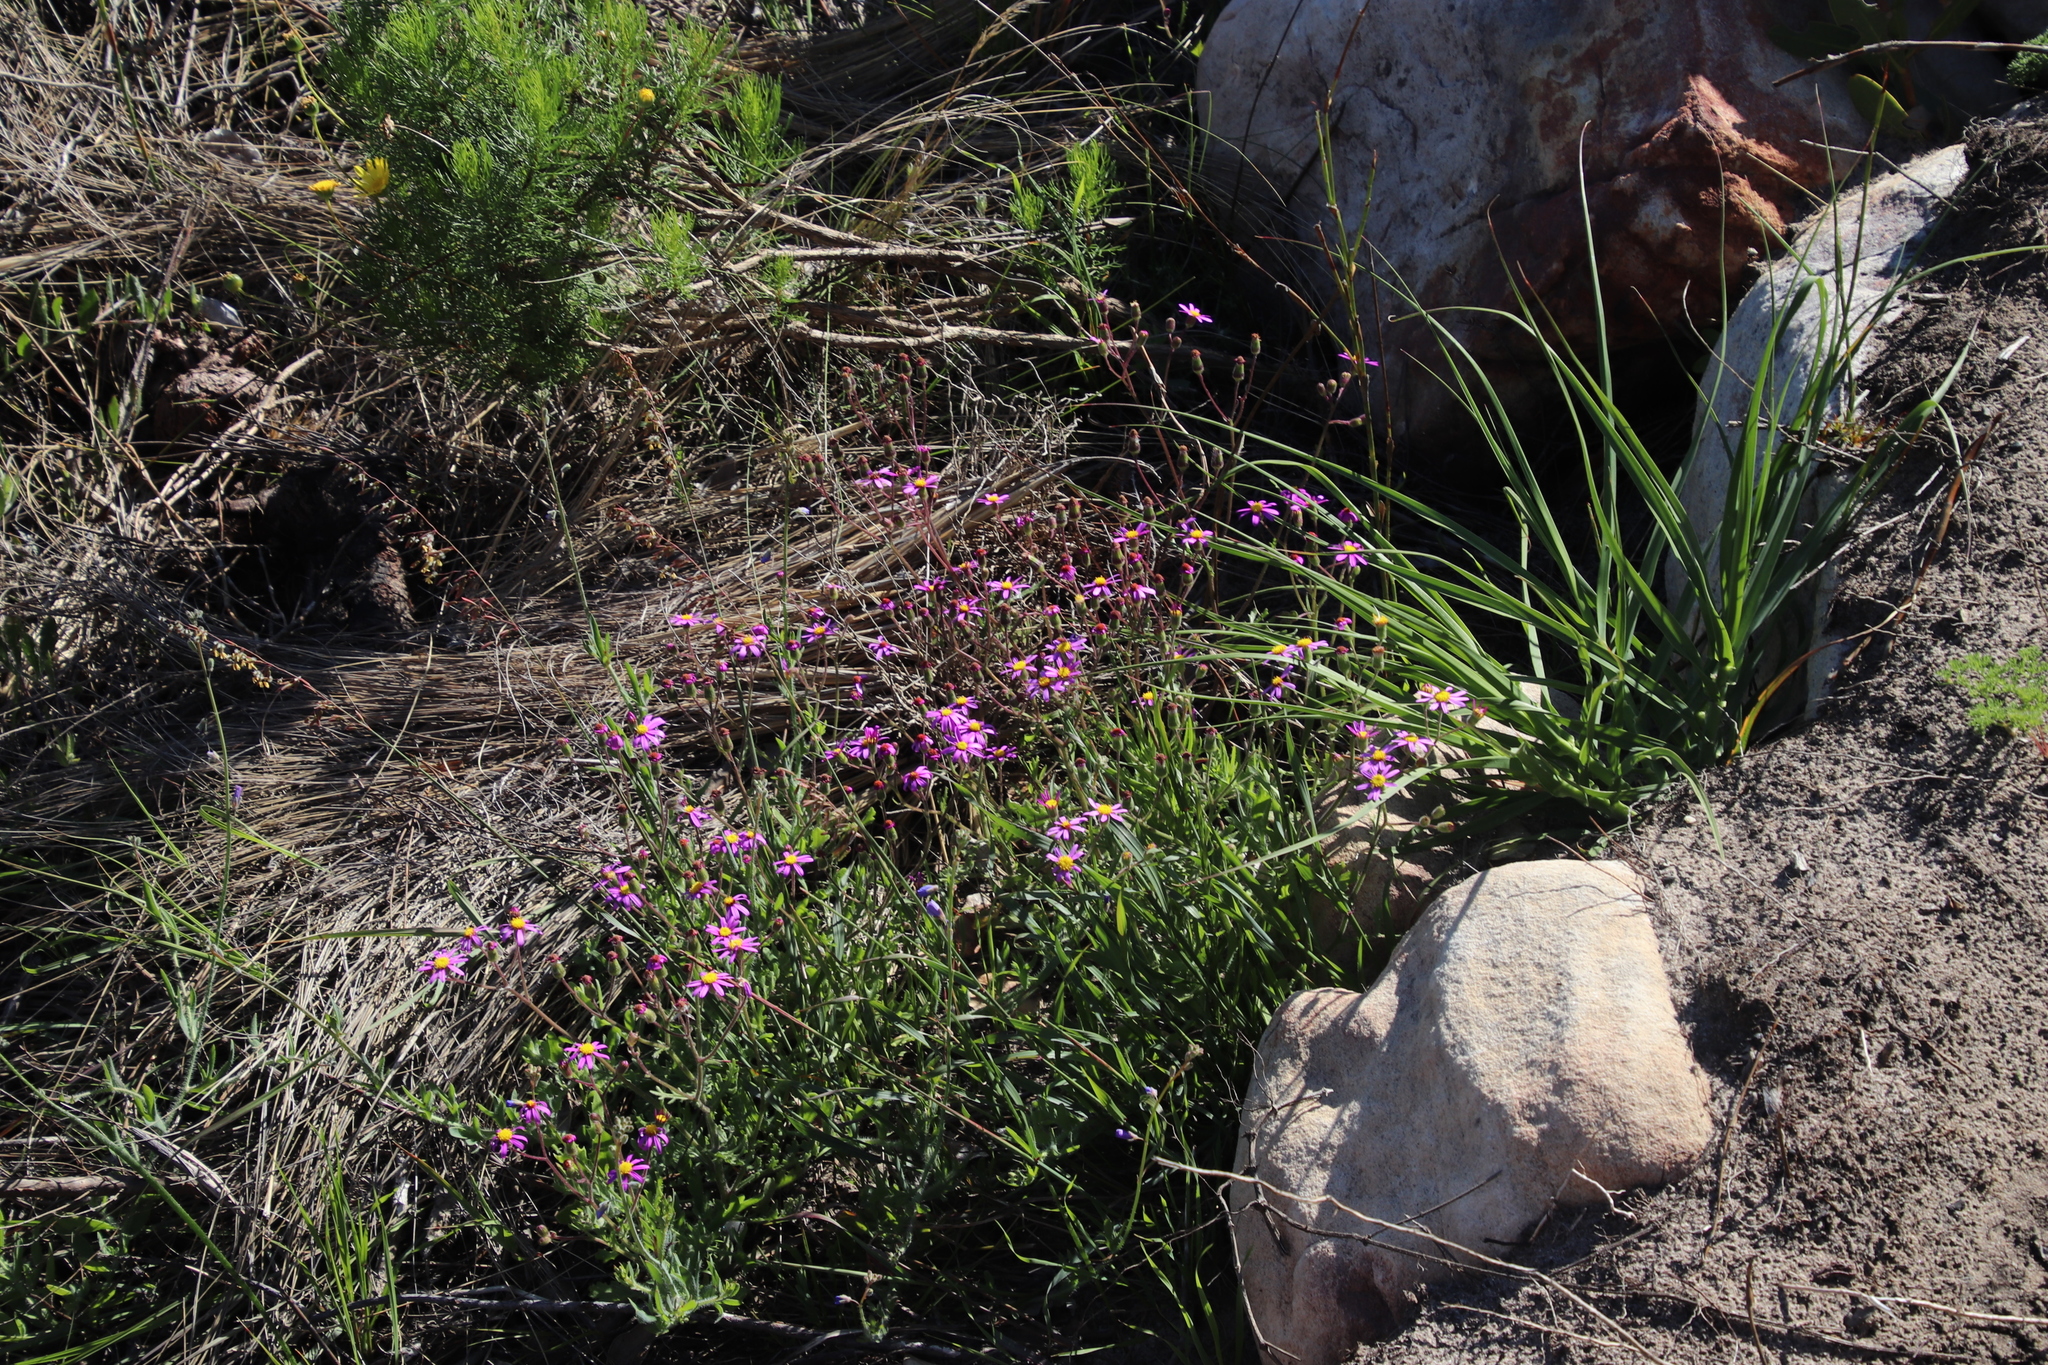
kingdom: Plantae
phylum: Tracheophyta
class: Magnoliopsida
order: Asterales
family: Asteraceae
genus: Senecio
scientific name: Senecio arenarius
